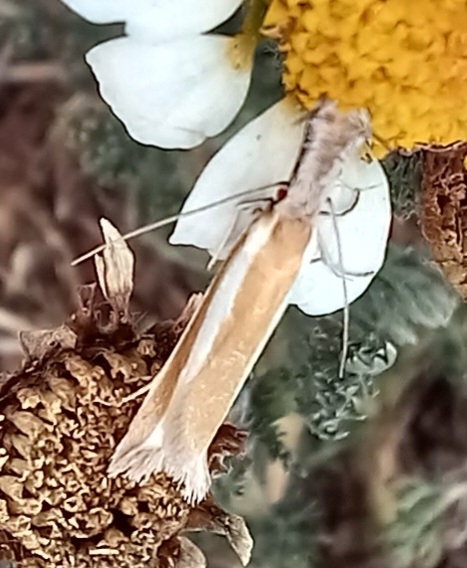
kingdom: Animalia
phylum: Arthropoda
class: Insecta
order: Lepidoptera
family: Oecophoridae
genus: Pleurota
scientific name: Pleurota aristella
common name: Southern streak
